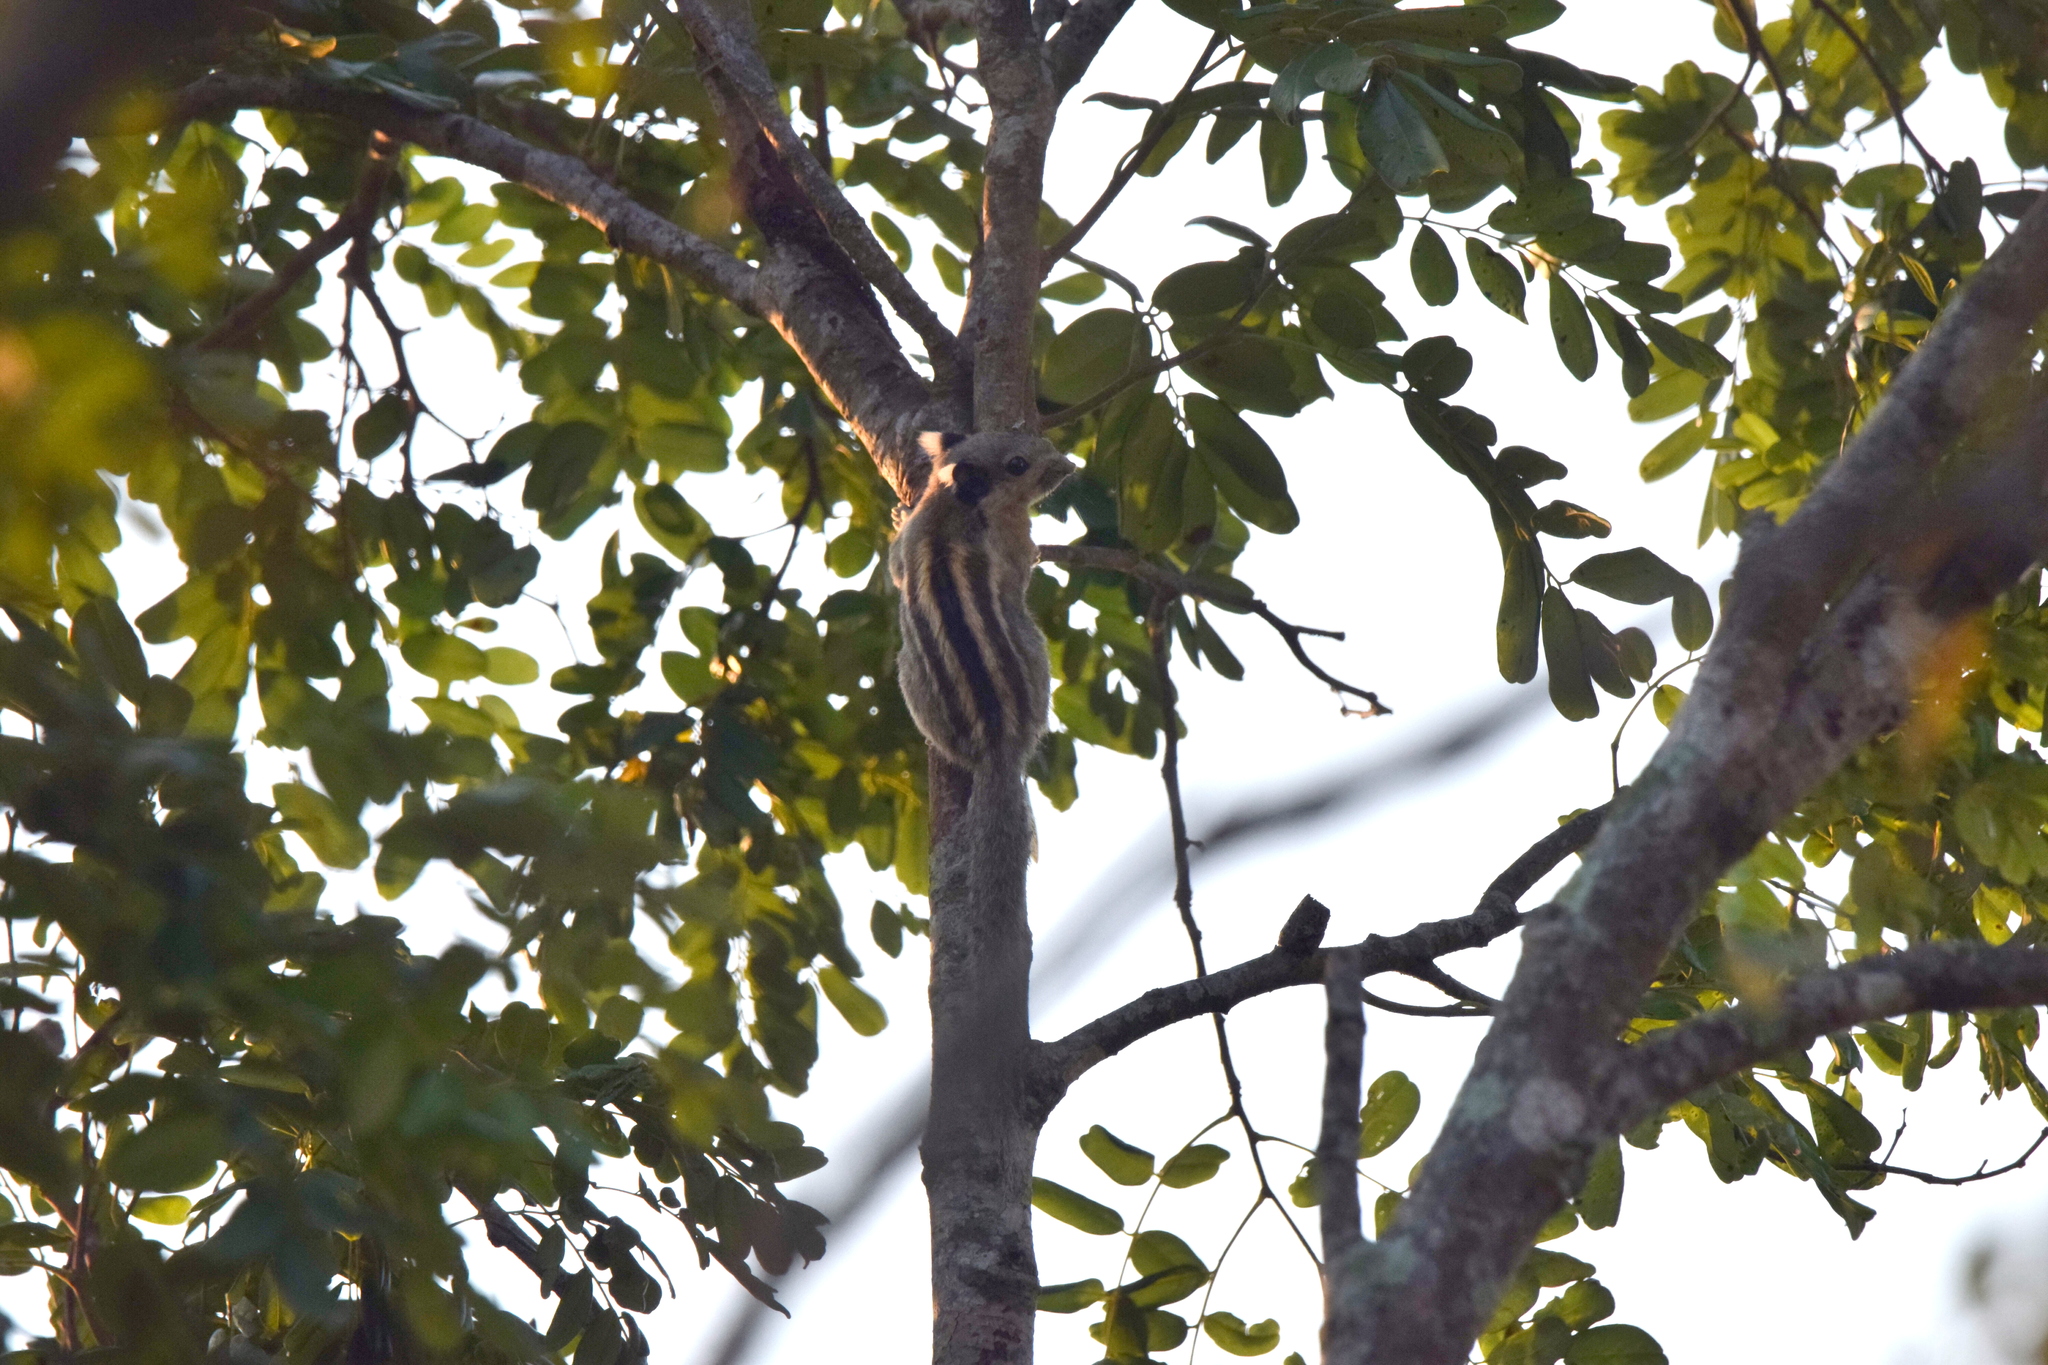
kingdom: Animalia
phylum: Chordata
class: Mammalia
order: Rodentia
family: Sciuridae
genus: Tamiops
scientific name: Tamiops rodolphii
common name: Cambodian striped squirrel
